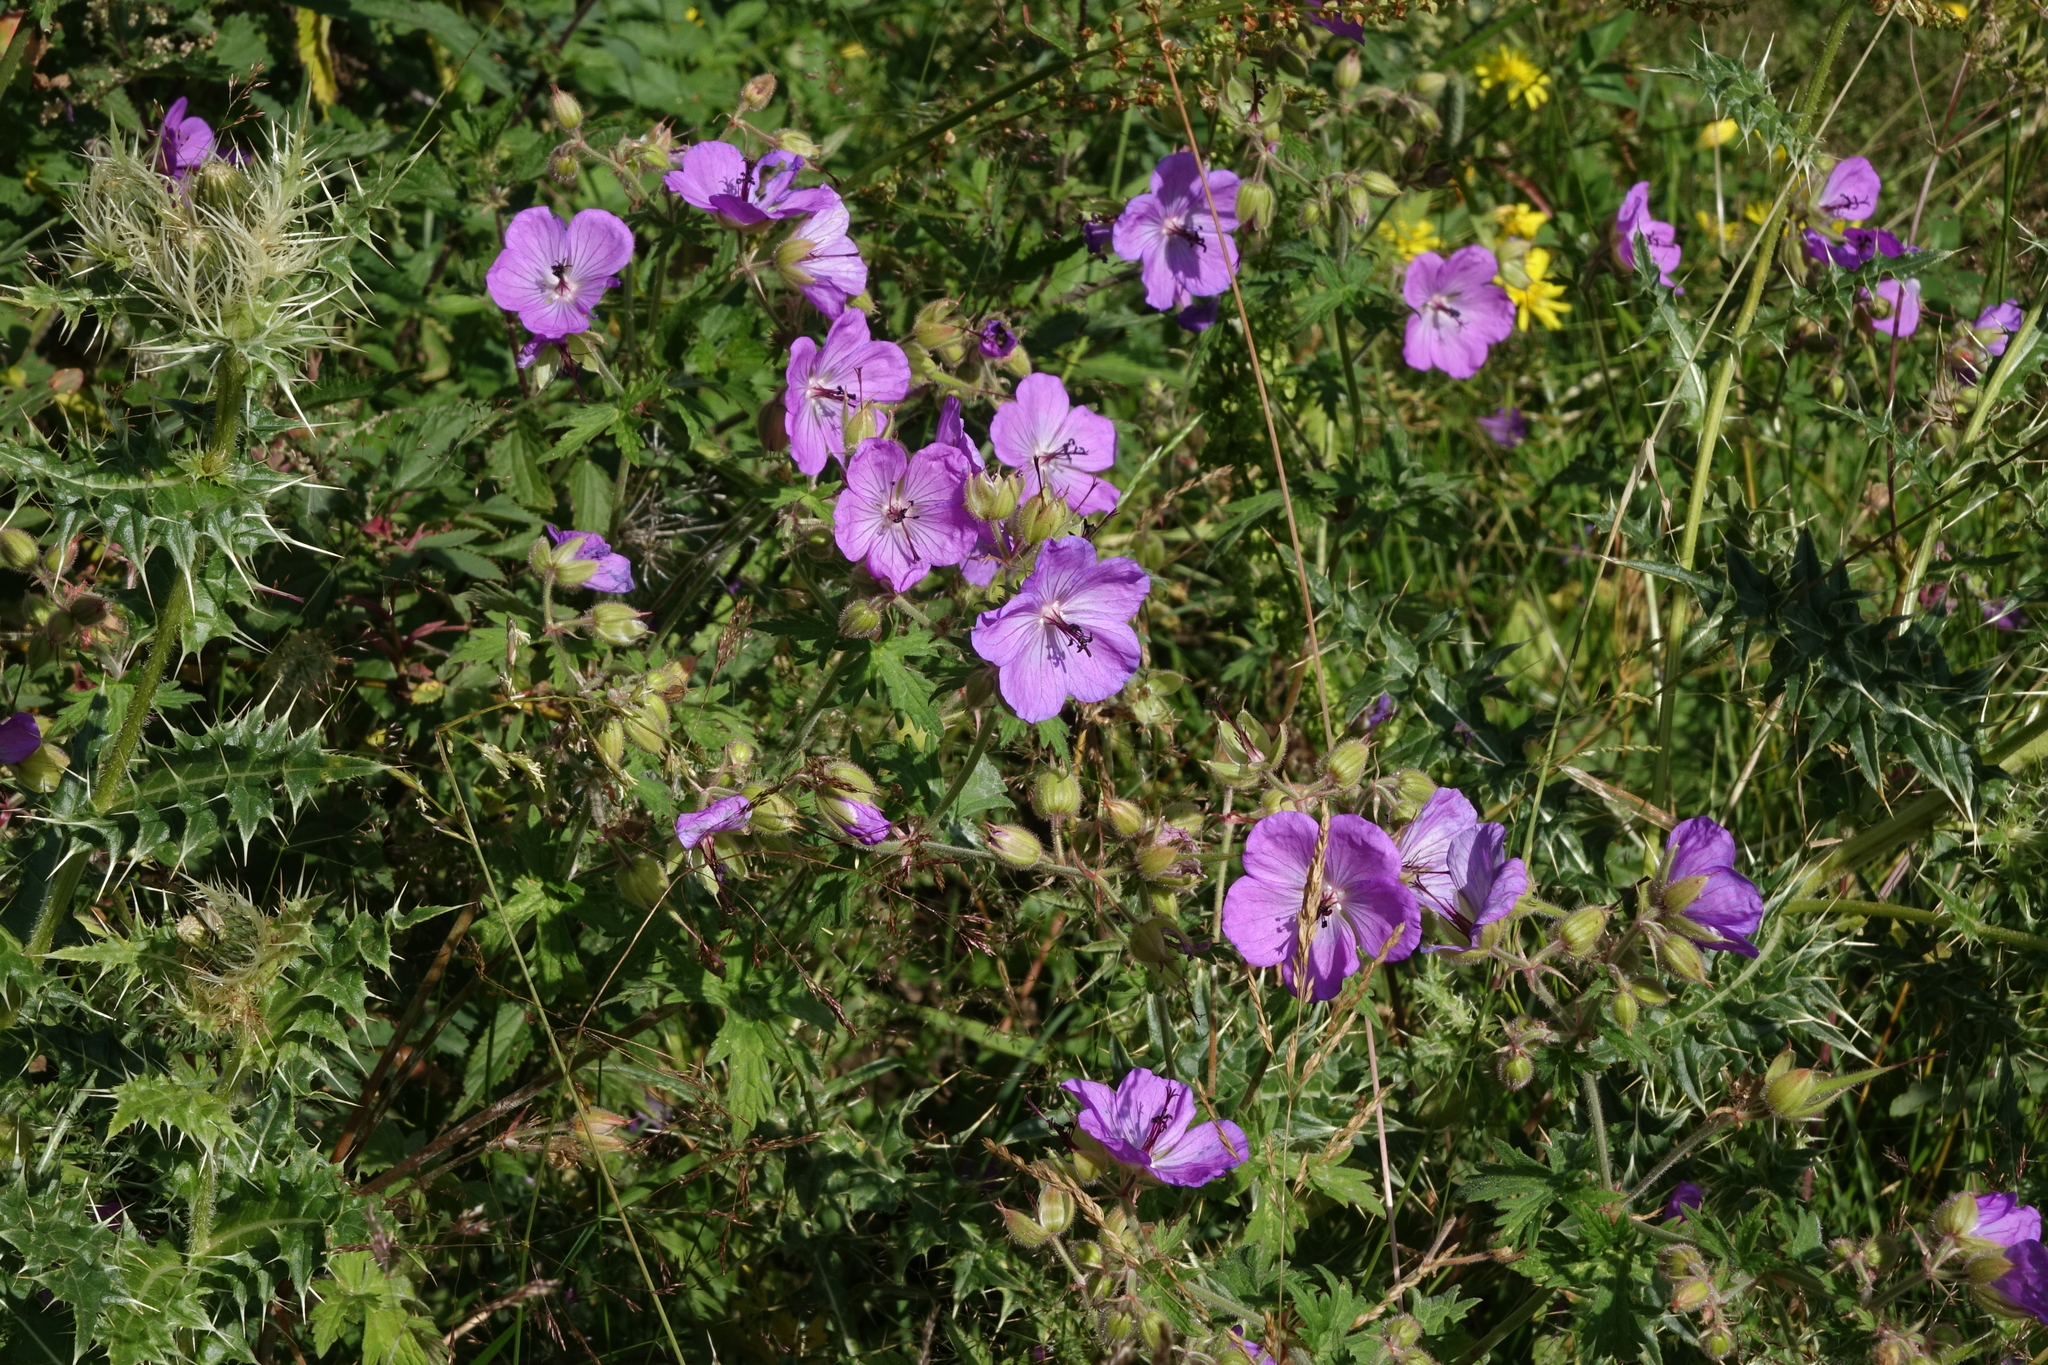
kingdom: Plantae
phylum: Tracheophyta
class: Magnoliopsida
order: Geraniales
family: Geraniaceae
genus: Geranium
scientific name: Geranium ruprechtii
